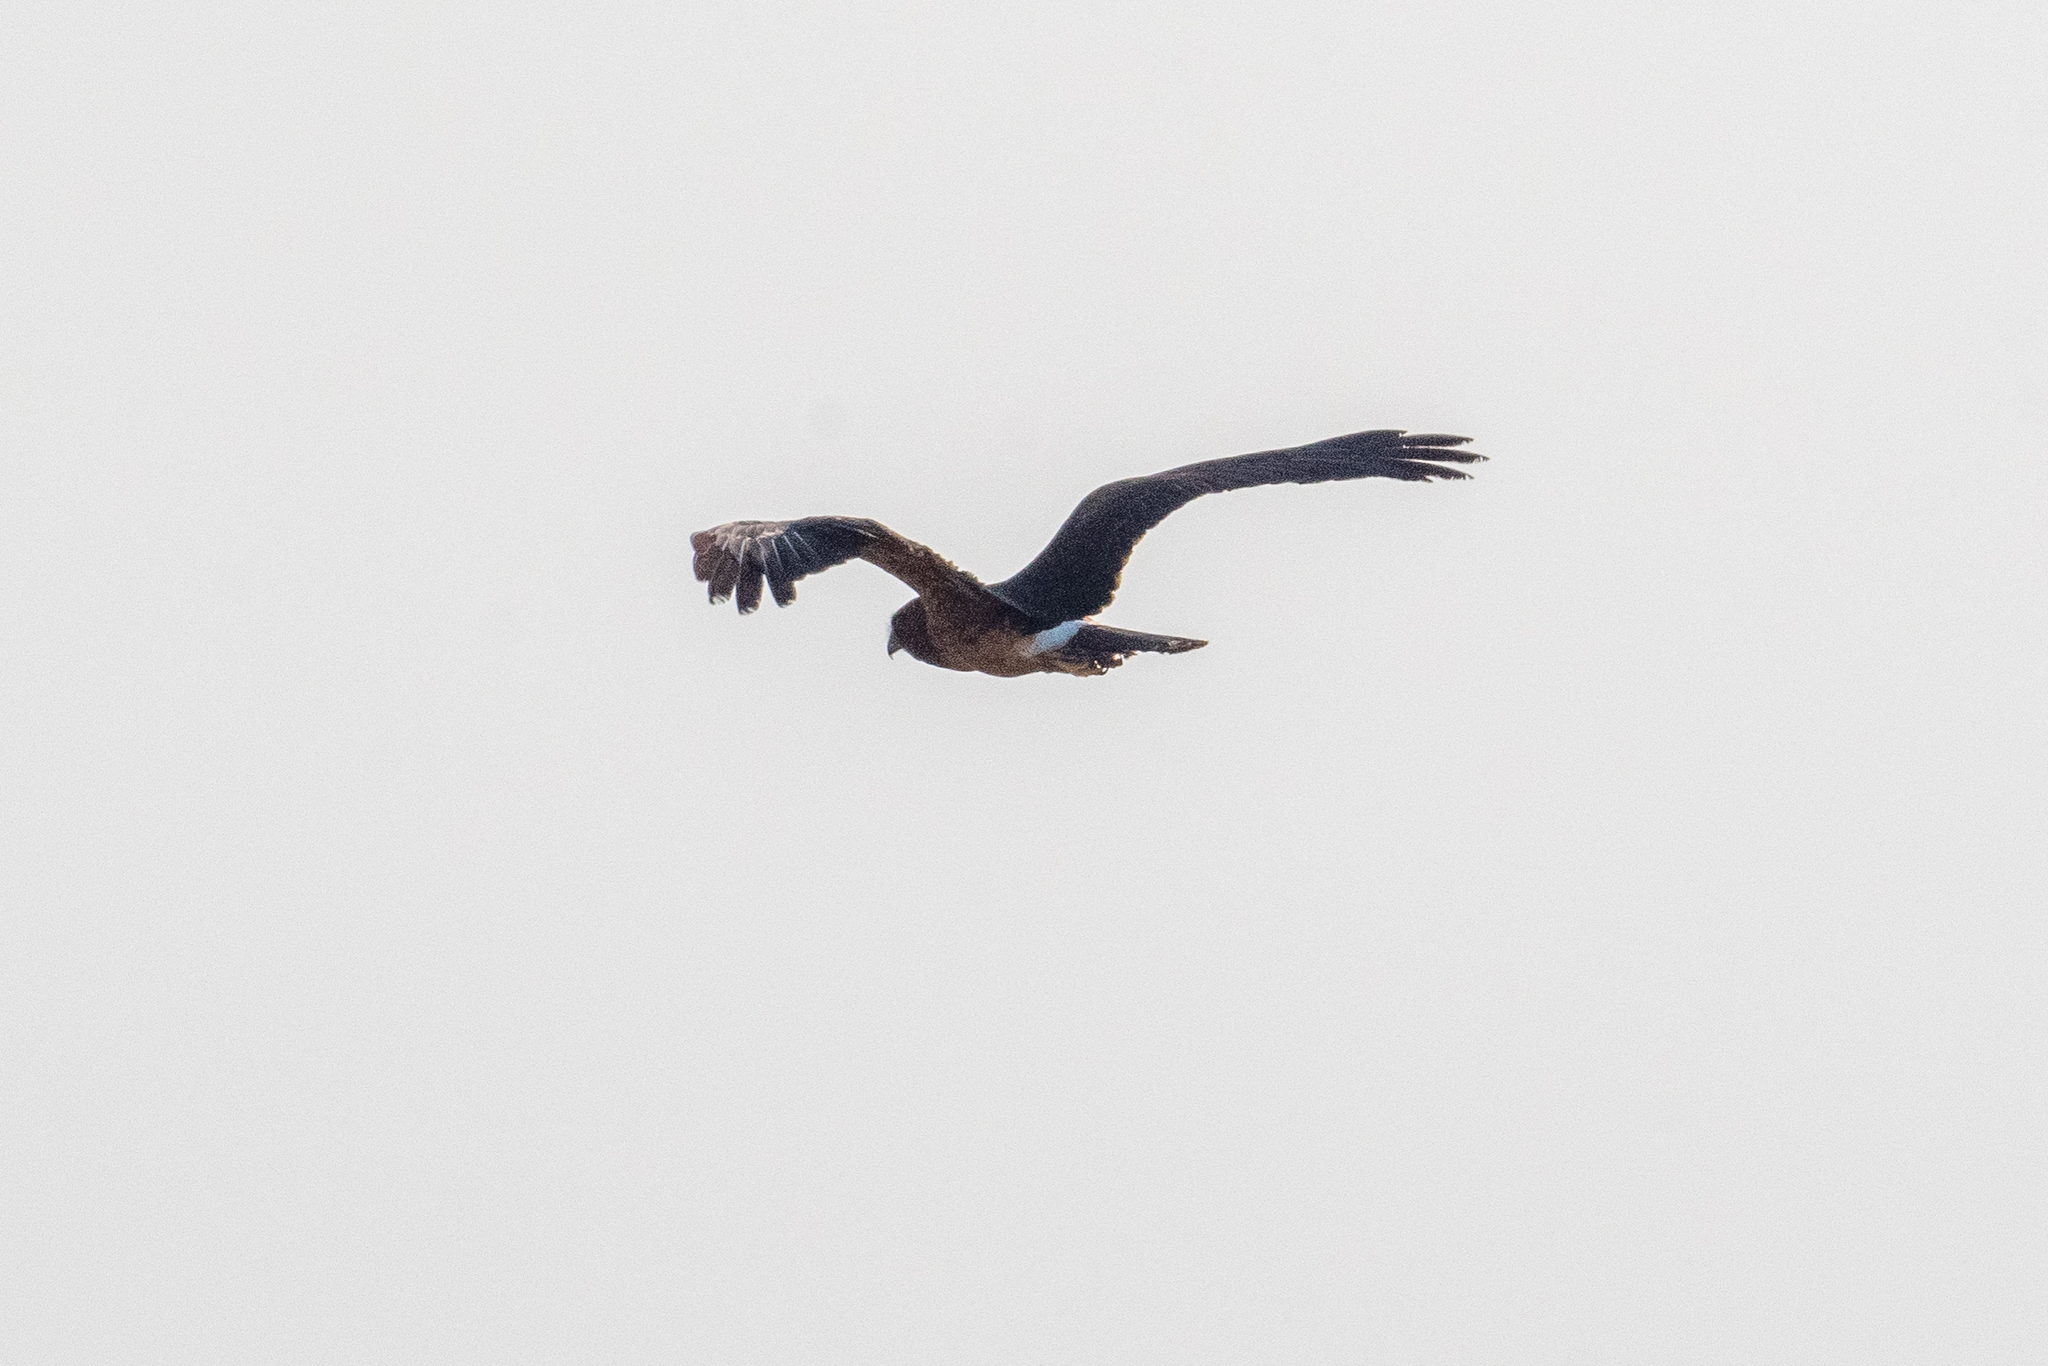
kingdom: Animalia
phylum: Chordata
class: Aves
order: Accipitriformes
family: Accipitridae
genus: Circus
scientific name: Circus cyaneus
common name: Hen harrier
